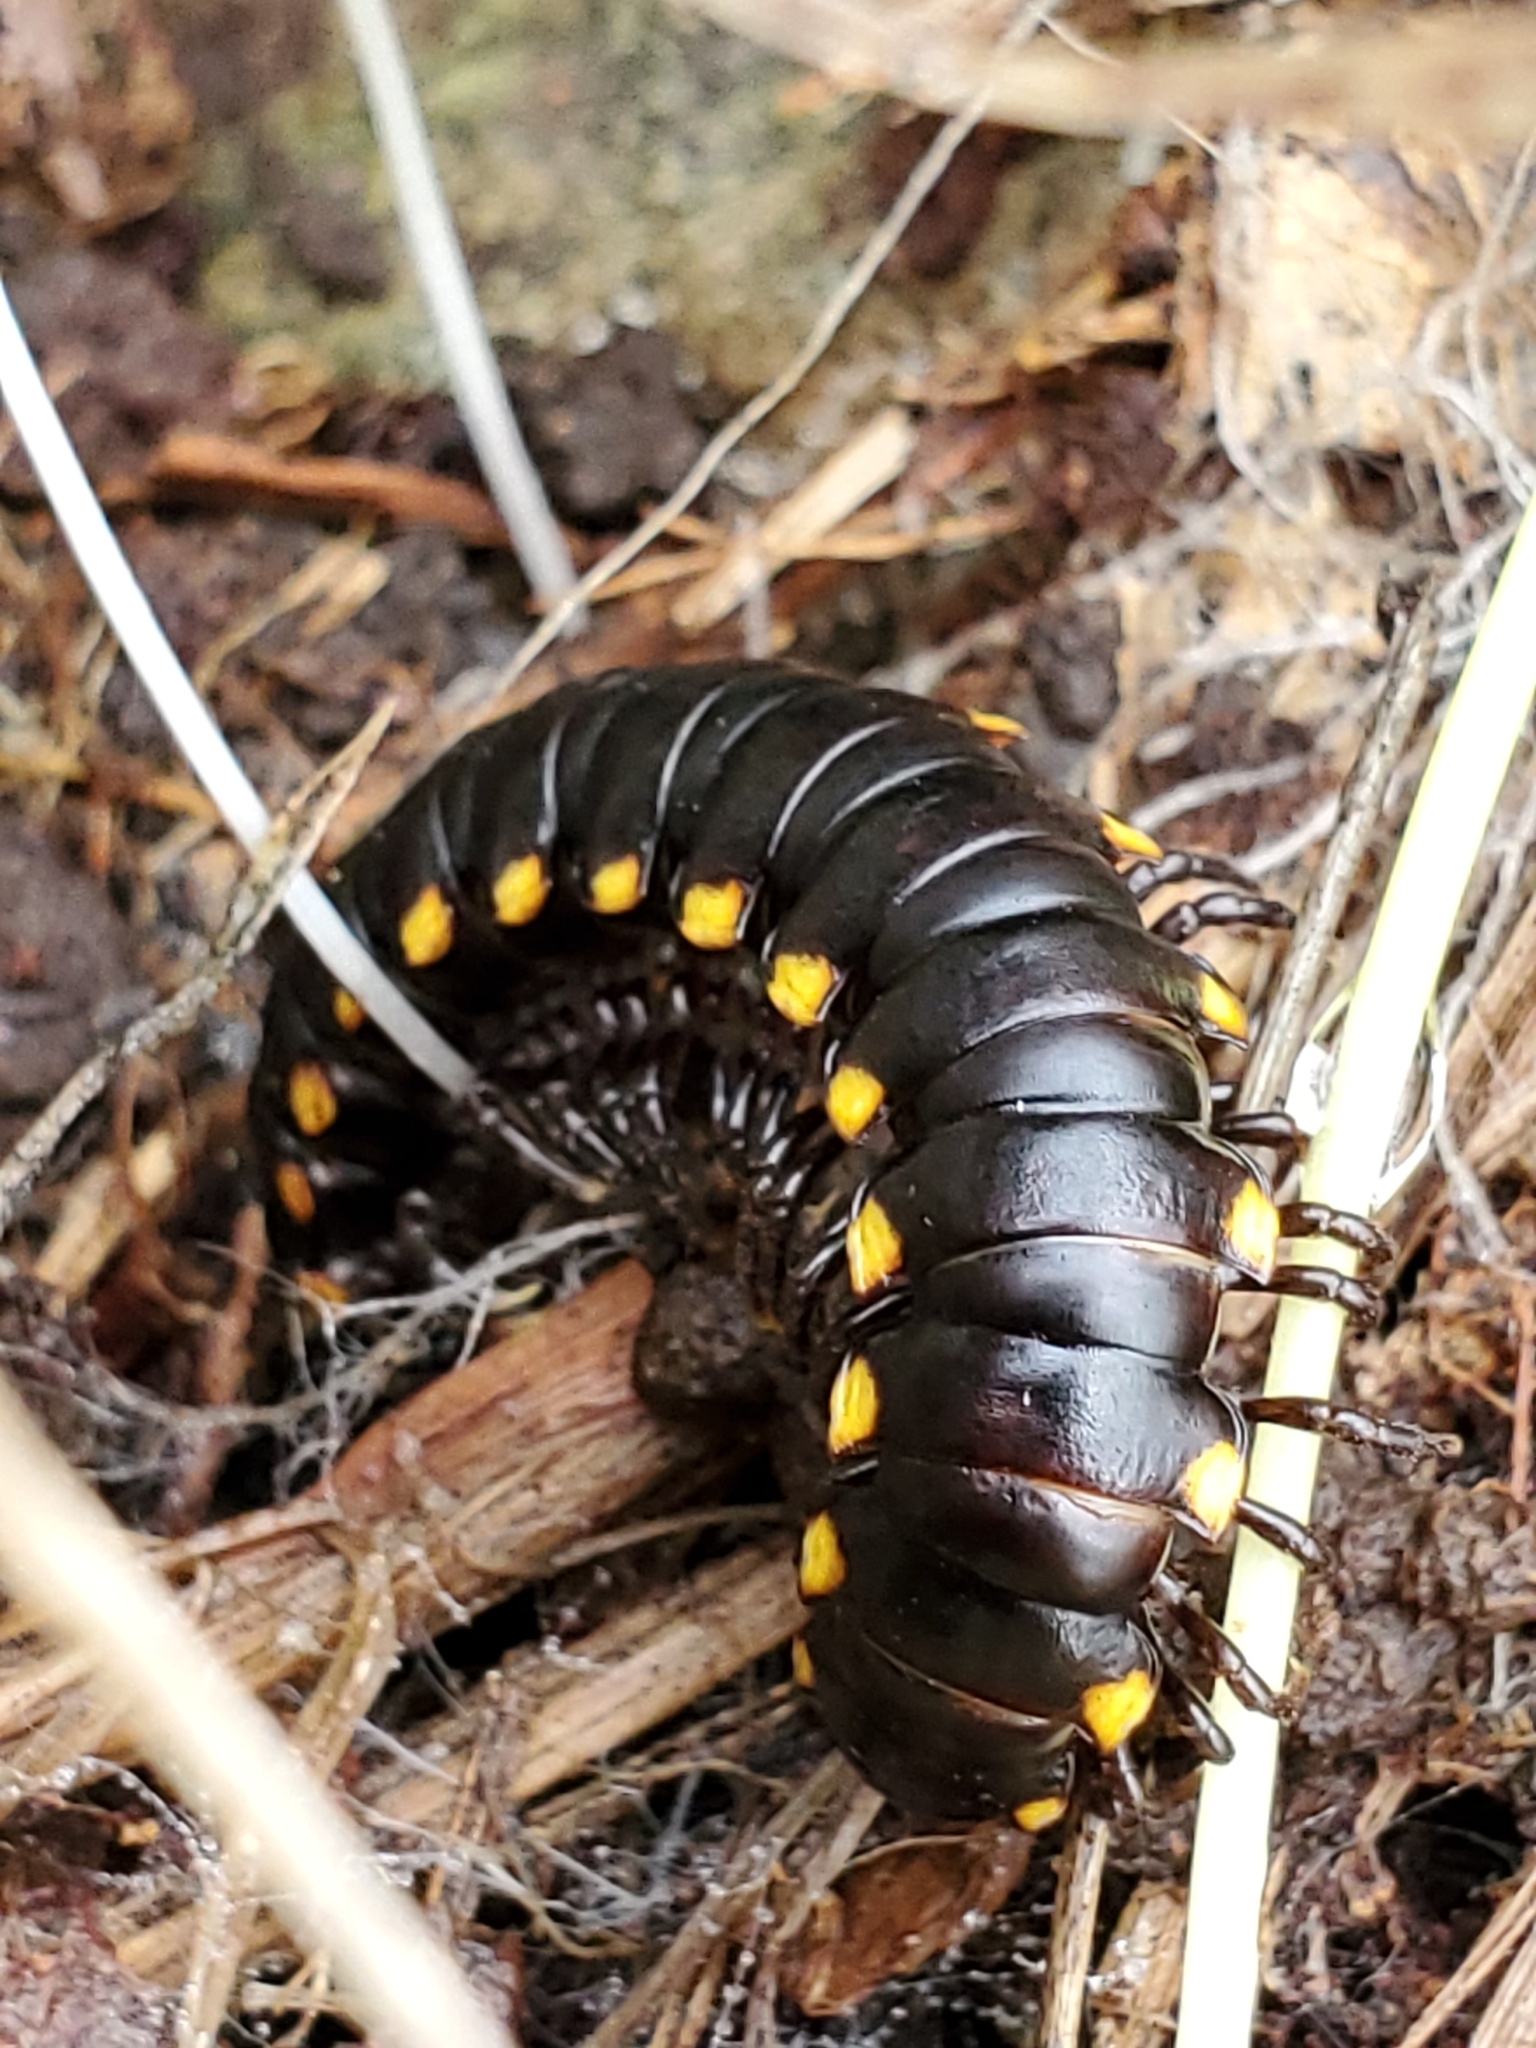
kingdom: Animalia
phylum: Arthropoda
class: Diplopoda
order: Polydesmida
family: Xystodesmidae
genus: Harpaphe
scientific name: Harpaphe haydeniana
